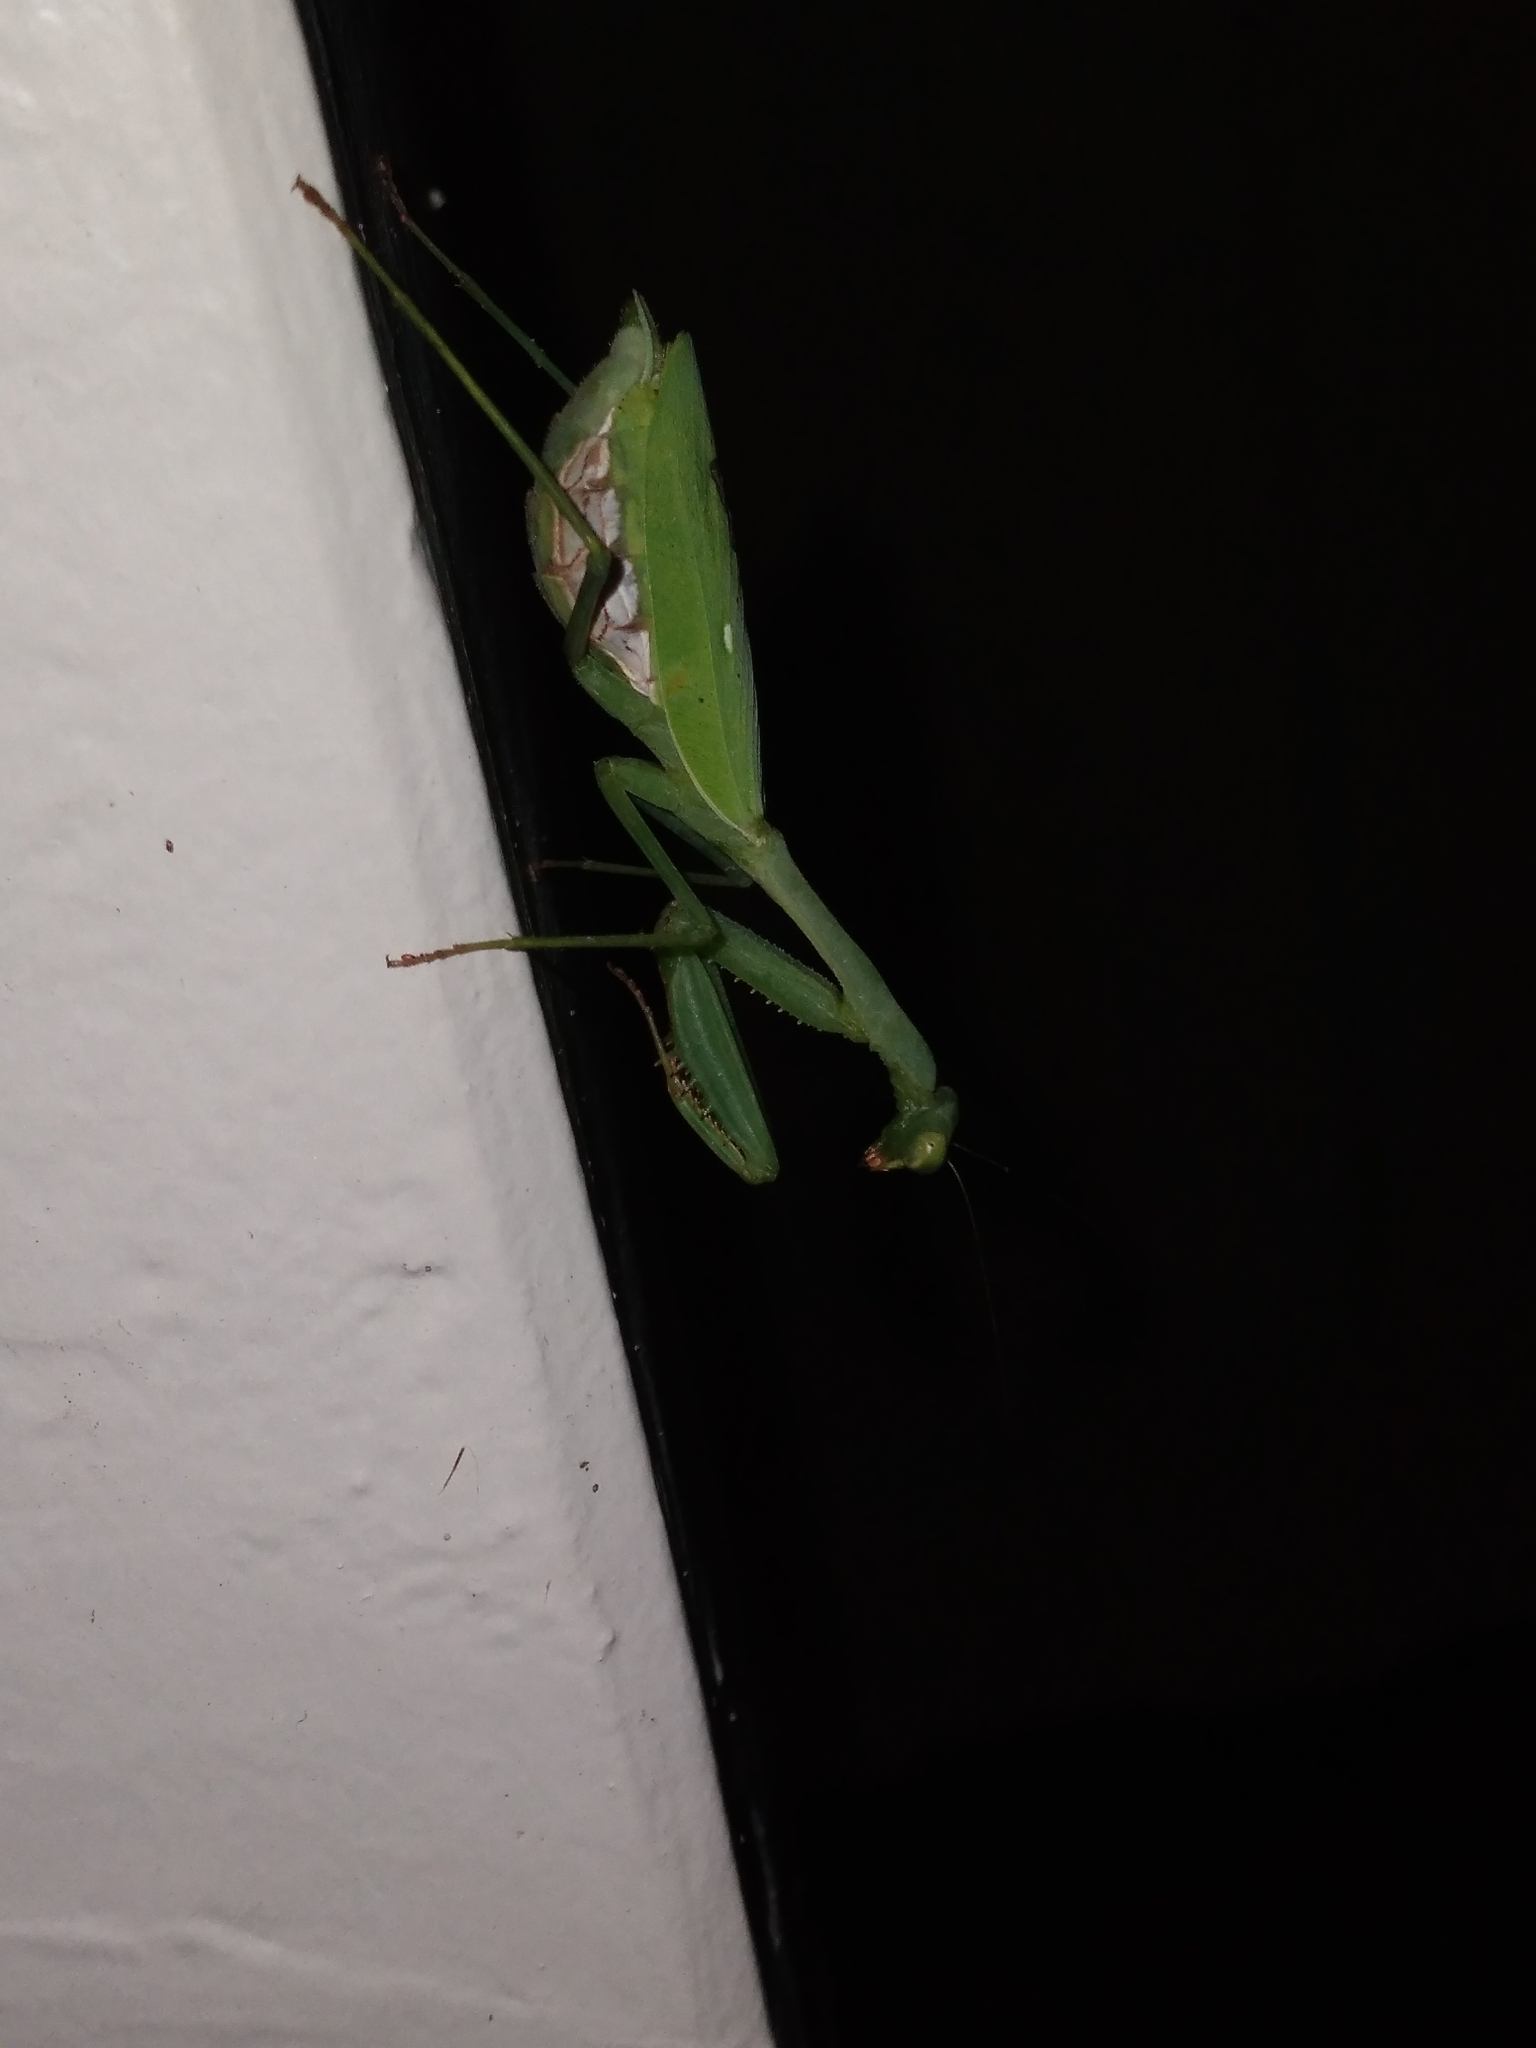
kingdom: Animalia
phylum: Arthropoda
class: Insecta
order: Mantodea
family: Miomantidae
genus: Miomantis
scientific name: Miomantis caffra
